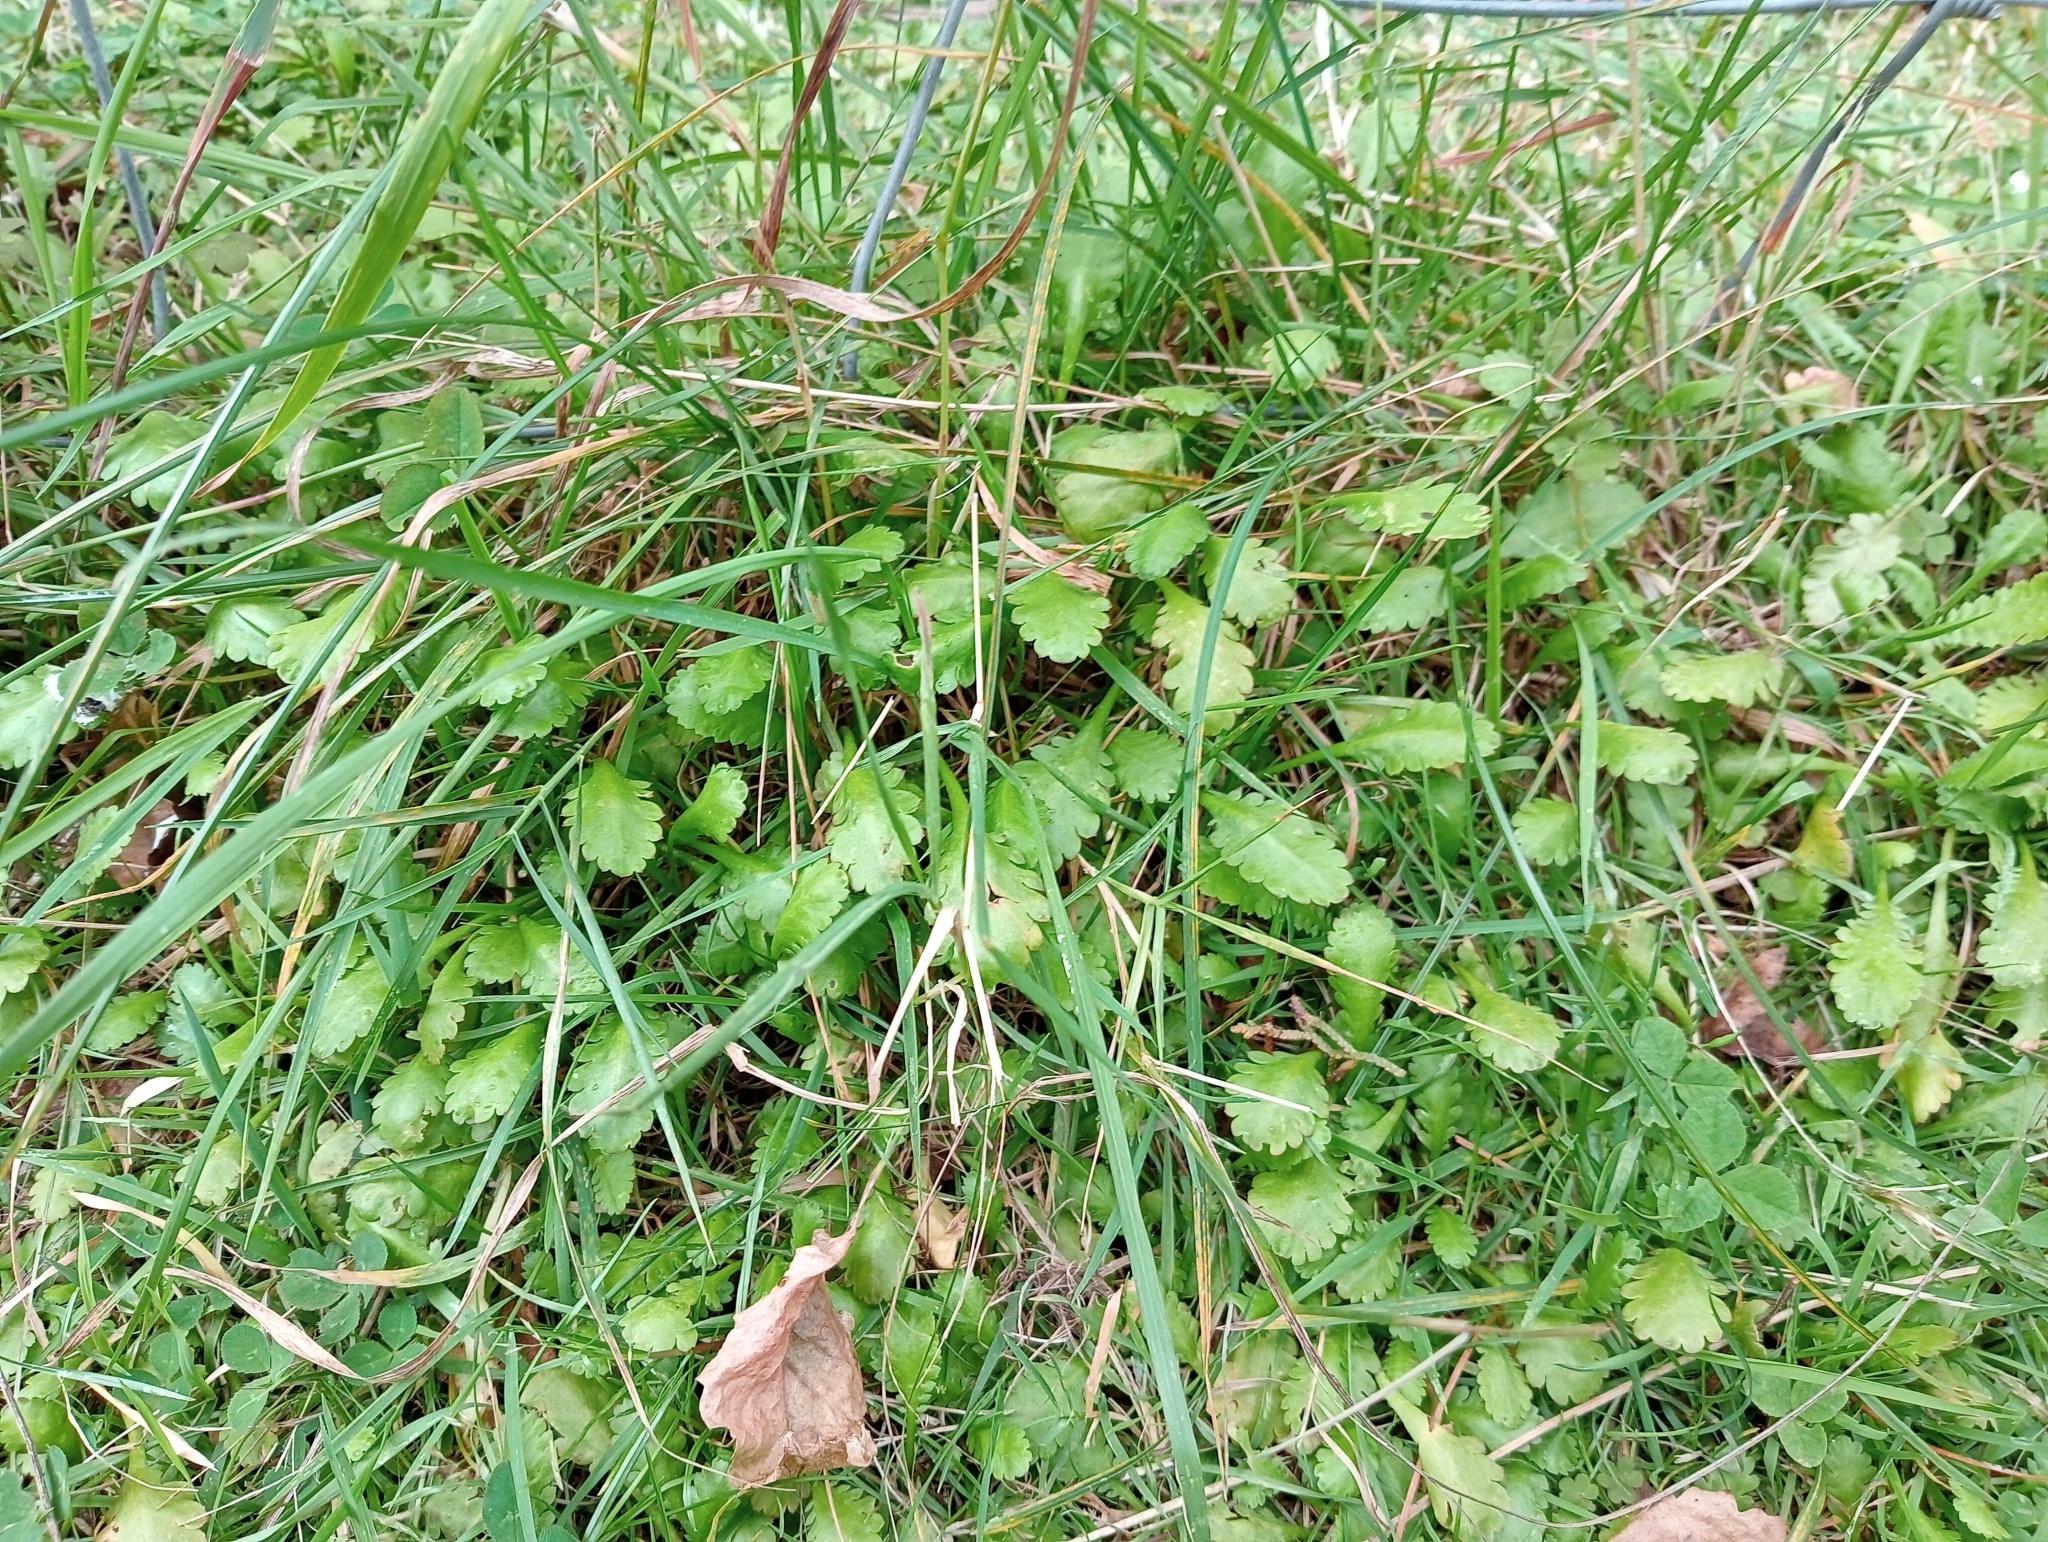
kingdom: Plantae
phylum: Tracheophyta
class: Magnoliopsida
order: Asterales
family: Asteraceae
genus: Leptinella
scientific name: Leptinella dioica
